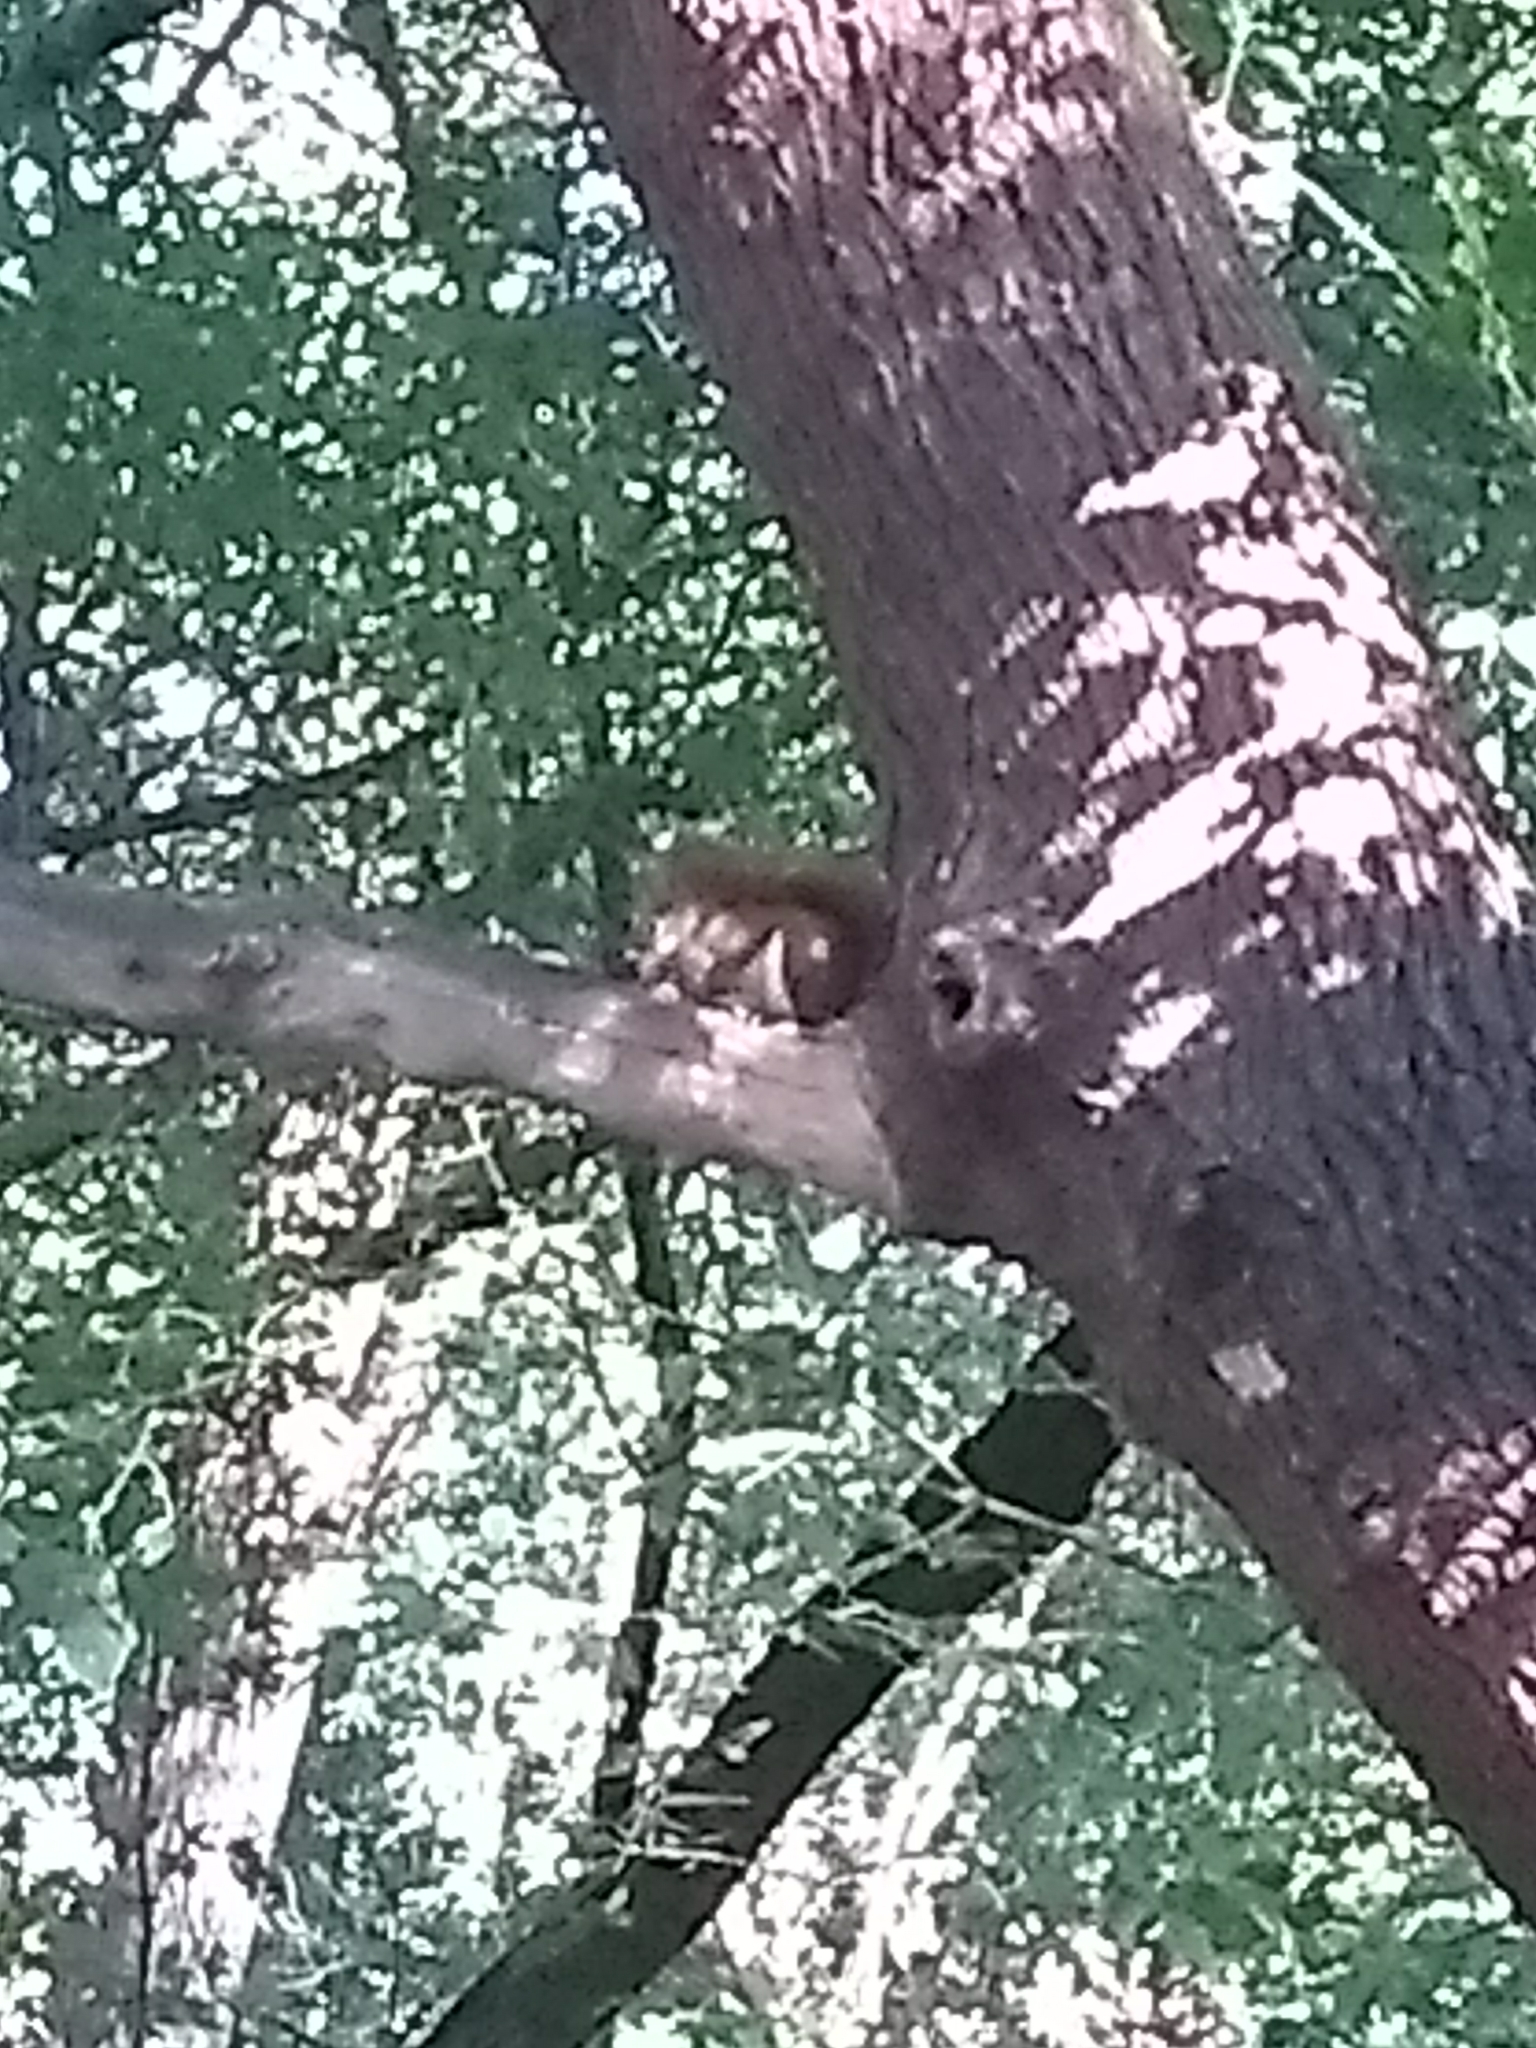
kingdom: Animalia
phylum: Chordata
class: Mammalia
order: Rodentia
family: Sciuridae
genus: Tamiasciurus
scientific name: Tamiasciurus hudsonicus
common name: Red squirrel
